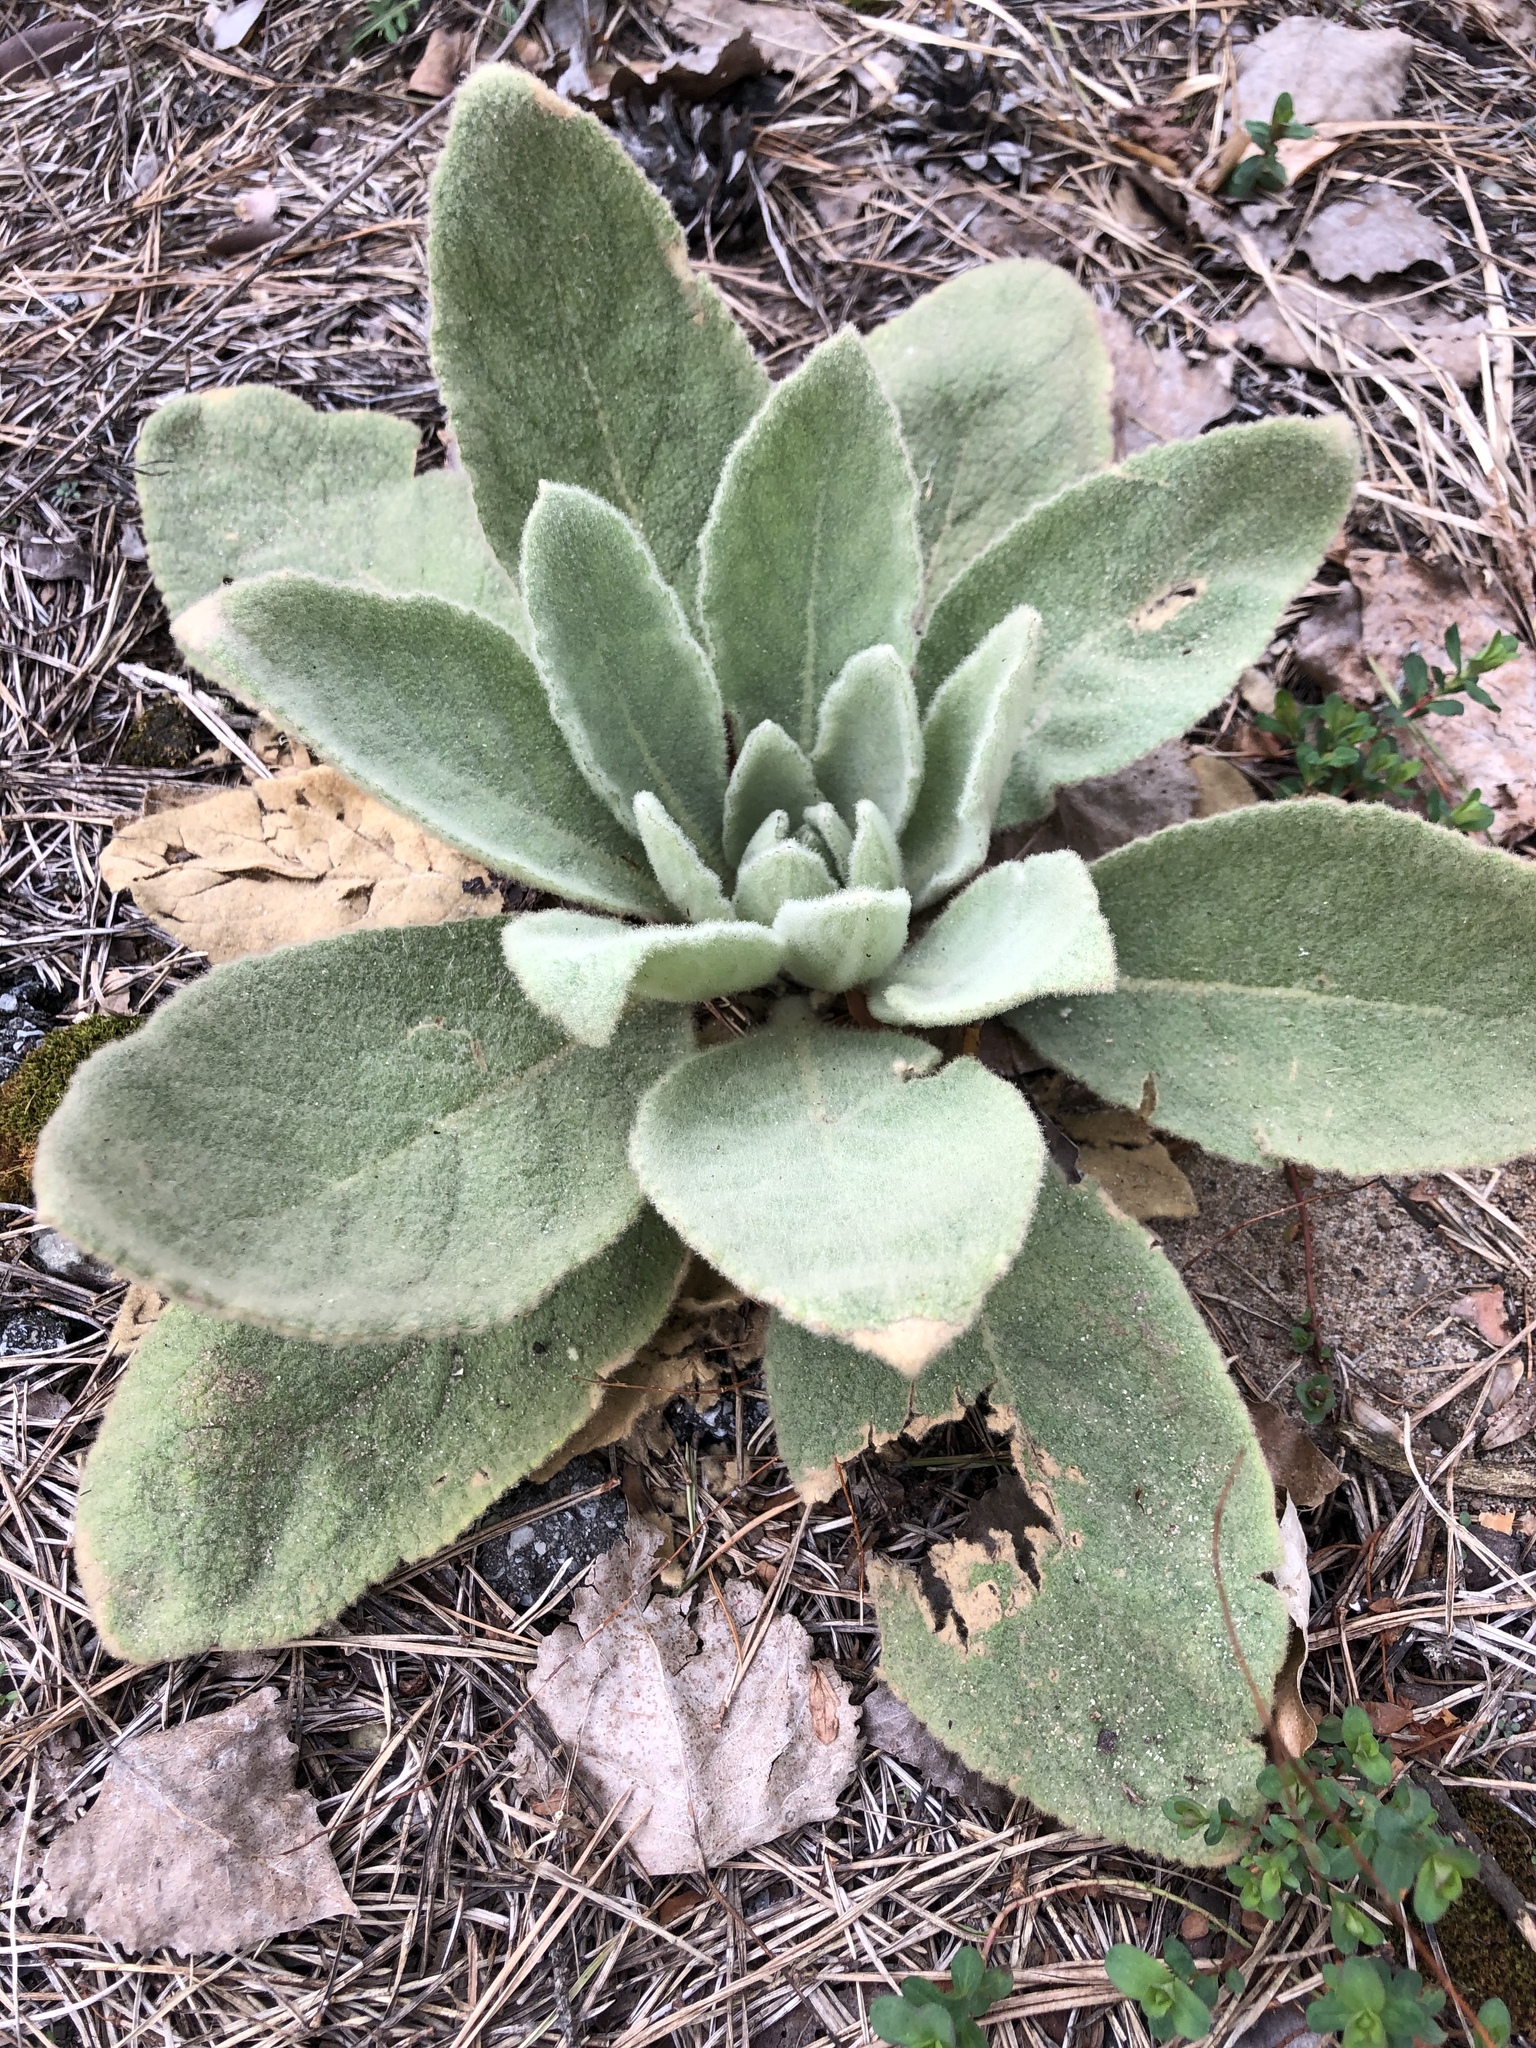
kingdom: Plantae
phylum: Tracheophyta
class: Magnoliopsida
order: Lamiales
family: Scrophulariaceae
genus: Verbascum
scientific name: Verbascum thapsus
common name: Common mullein
